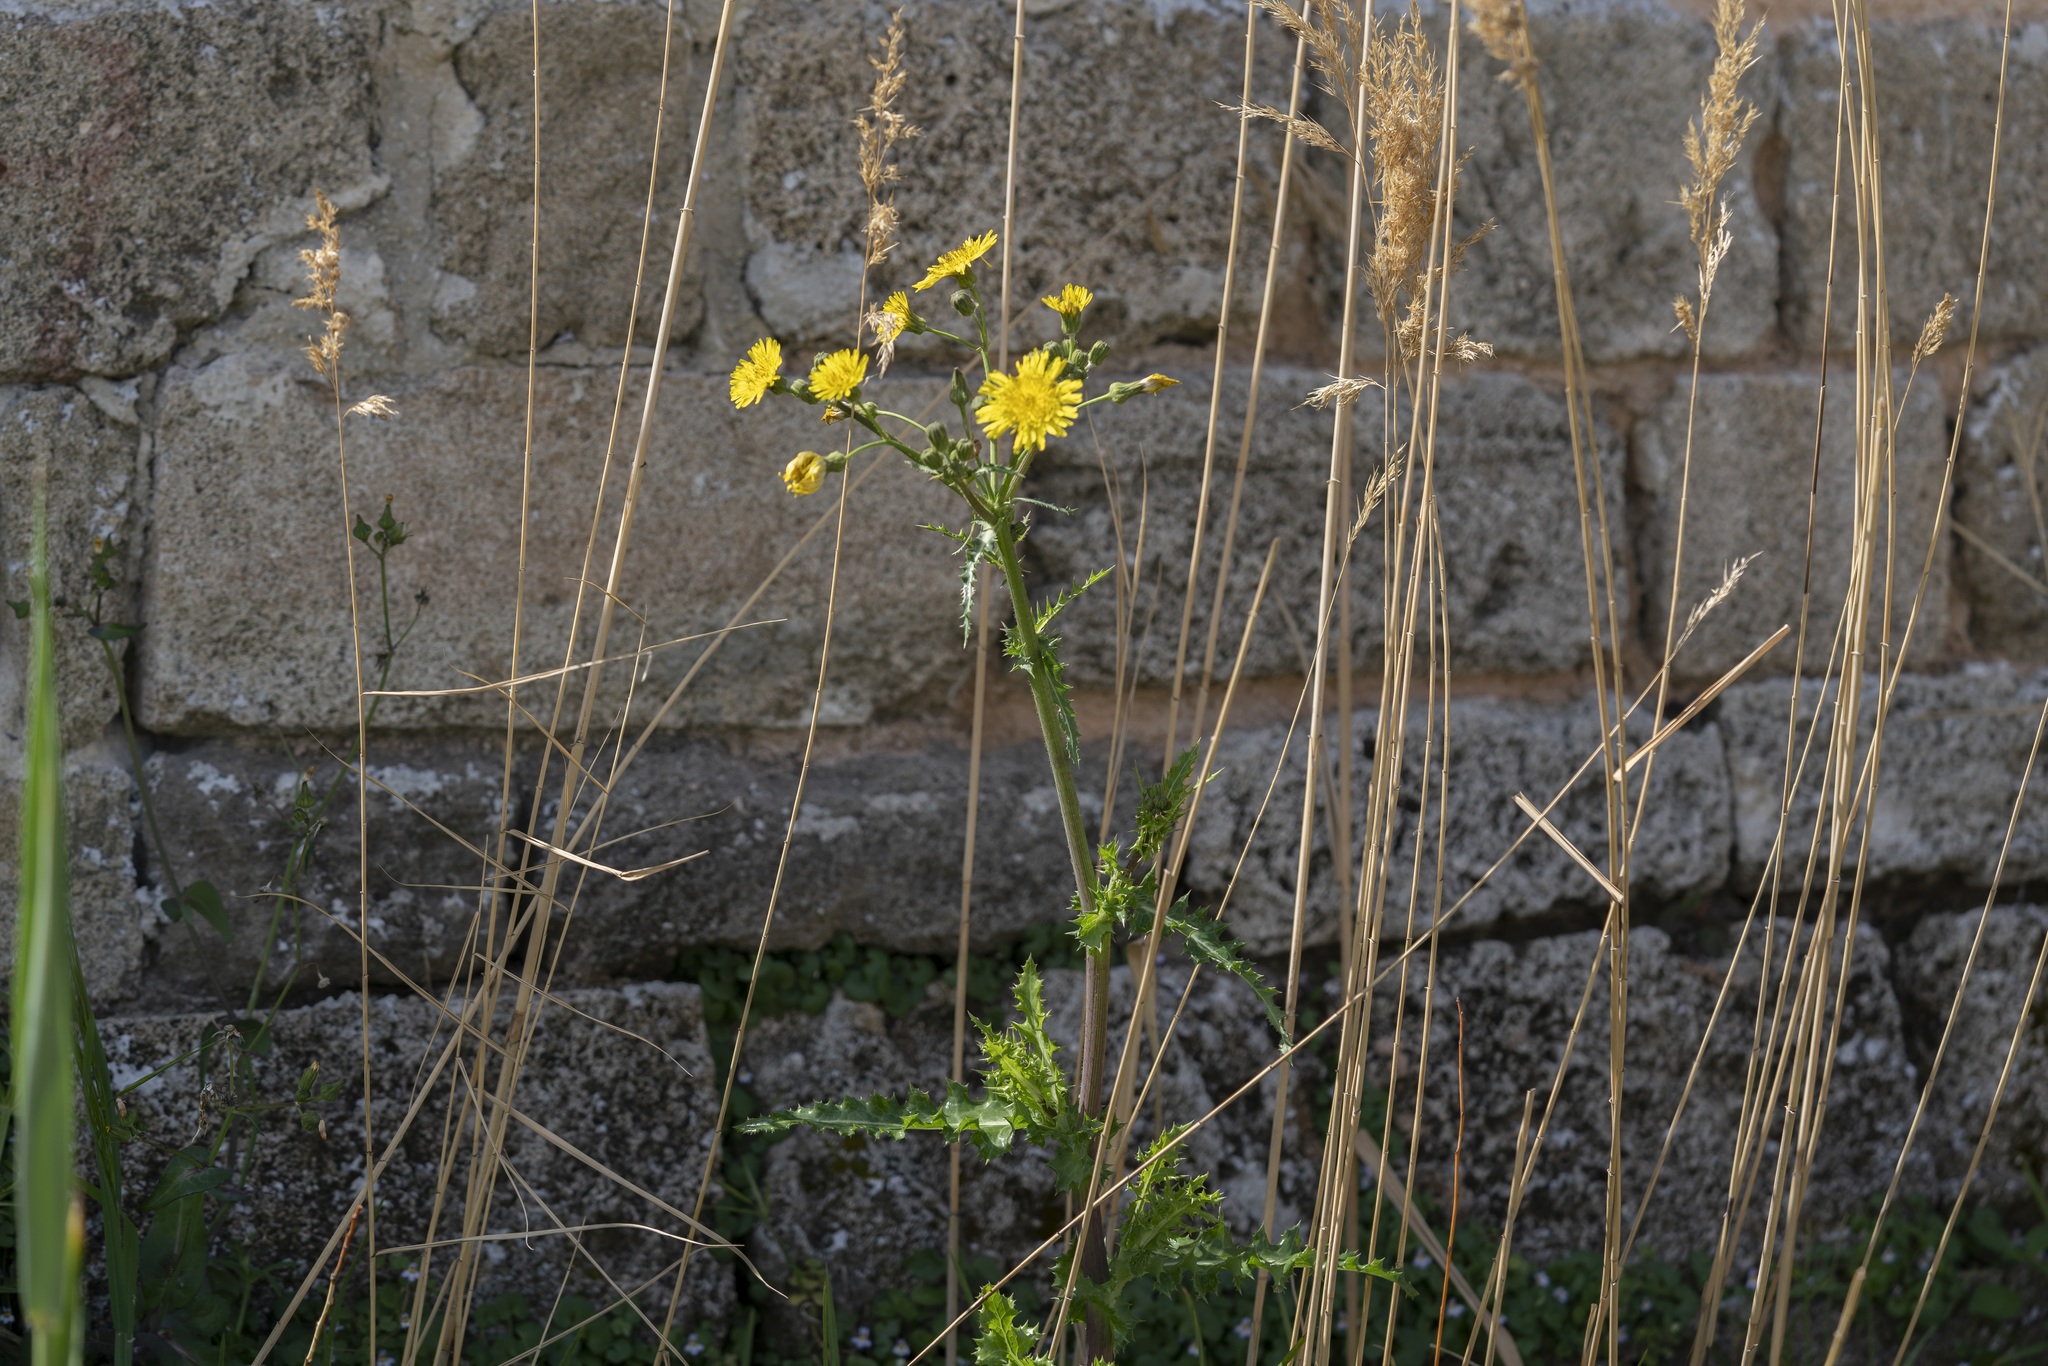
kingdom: Plantae
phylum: Tracheophyta
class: Magnoliopsida
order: Asterales
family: Asteraceae
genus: Sonchus
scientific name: Sonchus asper
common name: Prickly sow-thistle
